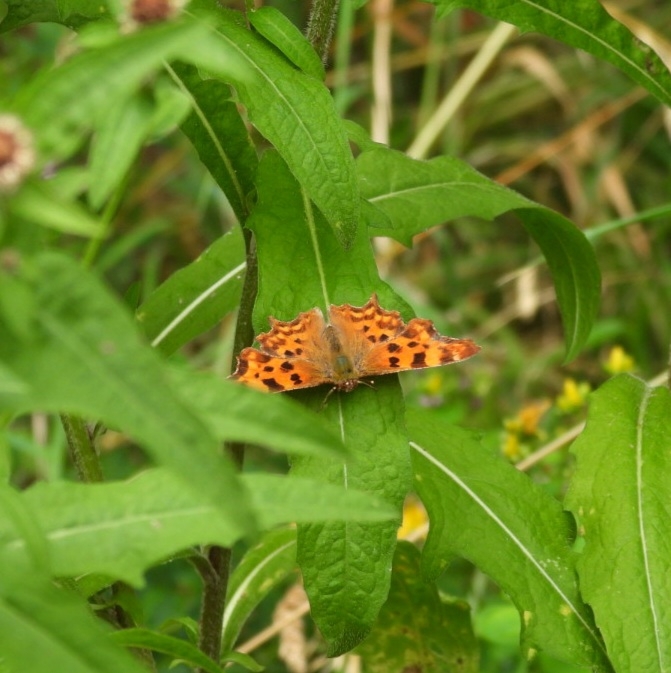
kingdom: Animalia
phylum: Arthropoda
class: Insecta
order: Lepidoptera
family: Nymphalidae
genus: Polygonia
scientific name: Polygonia c-album
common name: Comma
